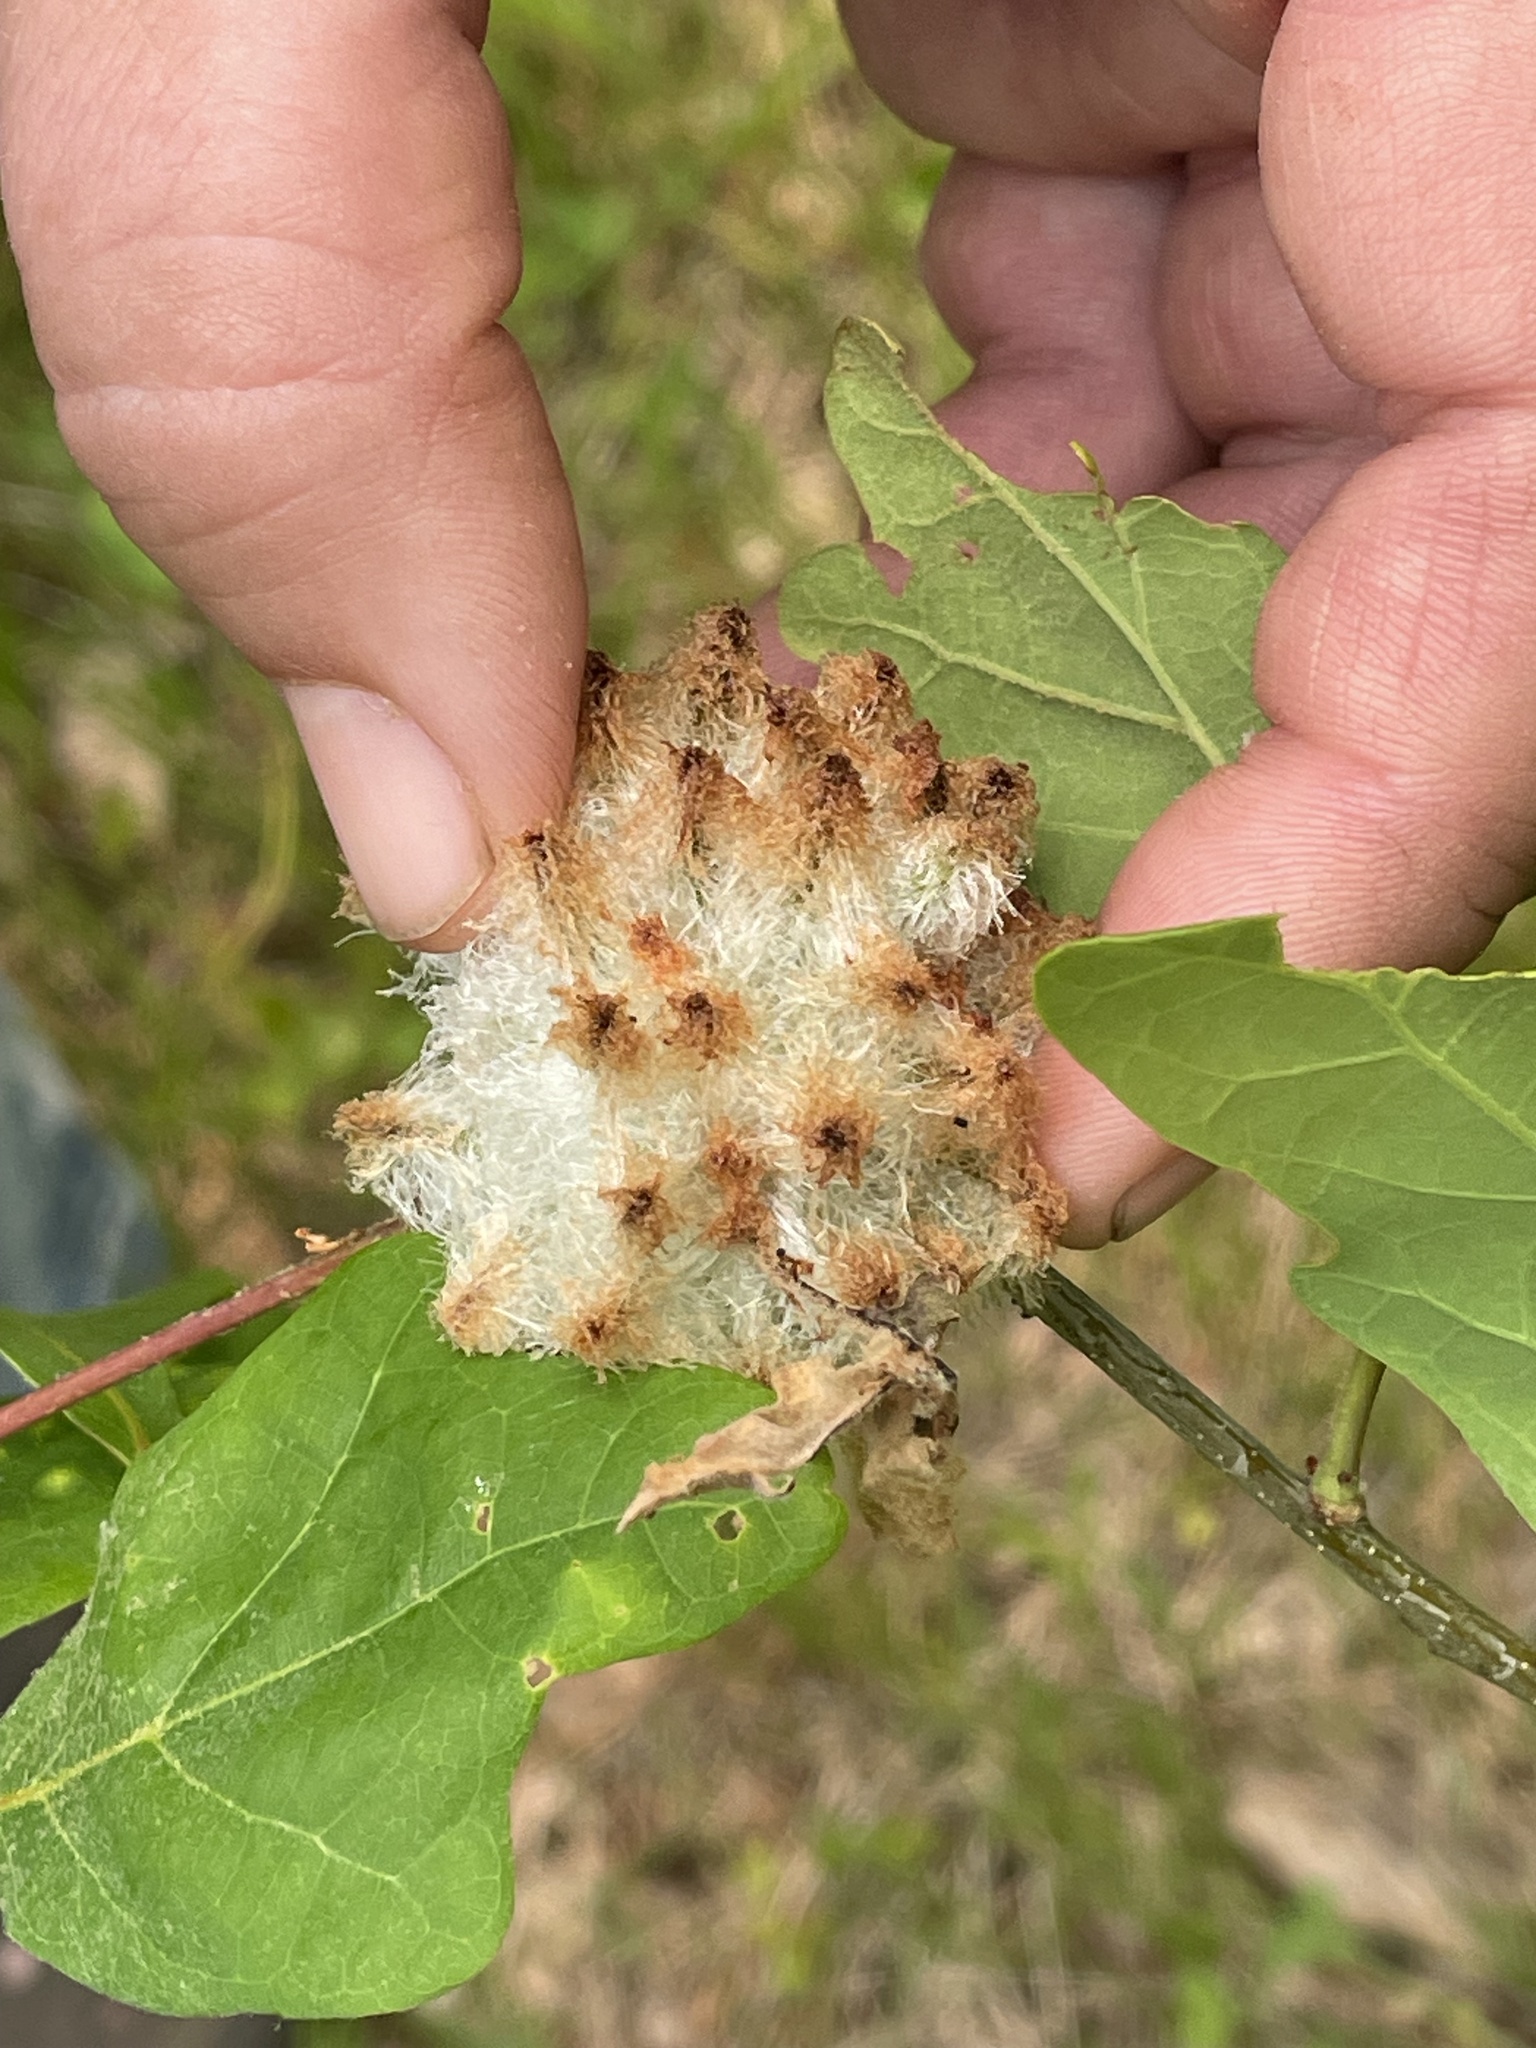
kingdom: Animalia
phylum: Arthropoda
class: Insecta
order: Hymenoptera
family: Cynipidae
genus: Callirhytis
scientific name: Callirhytis
